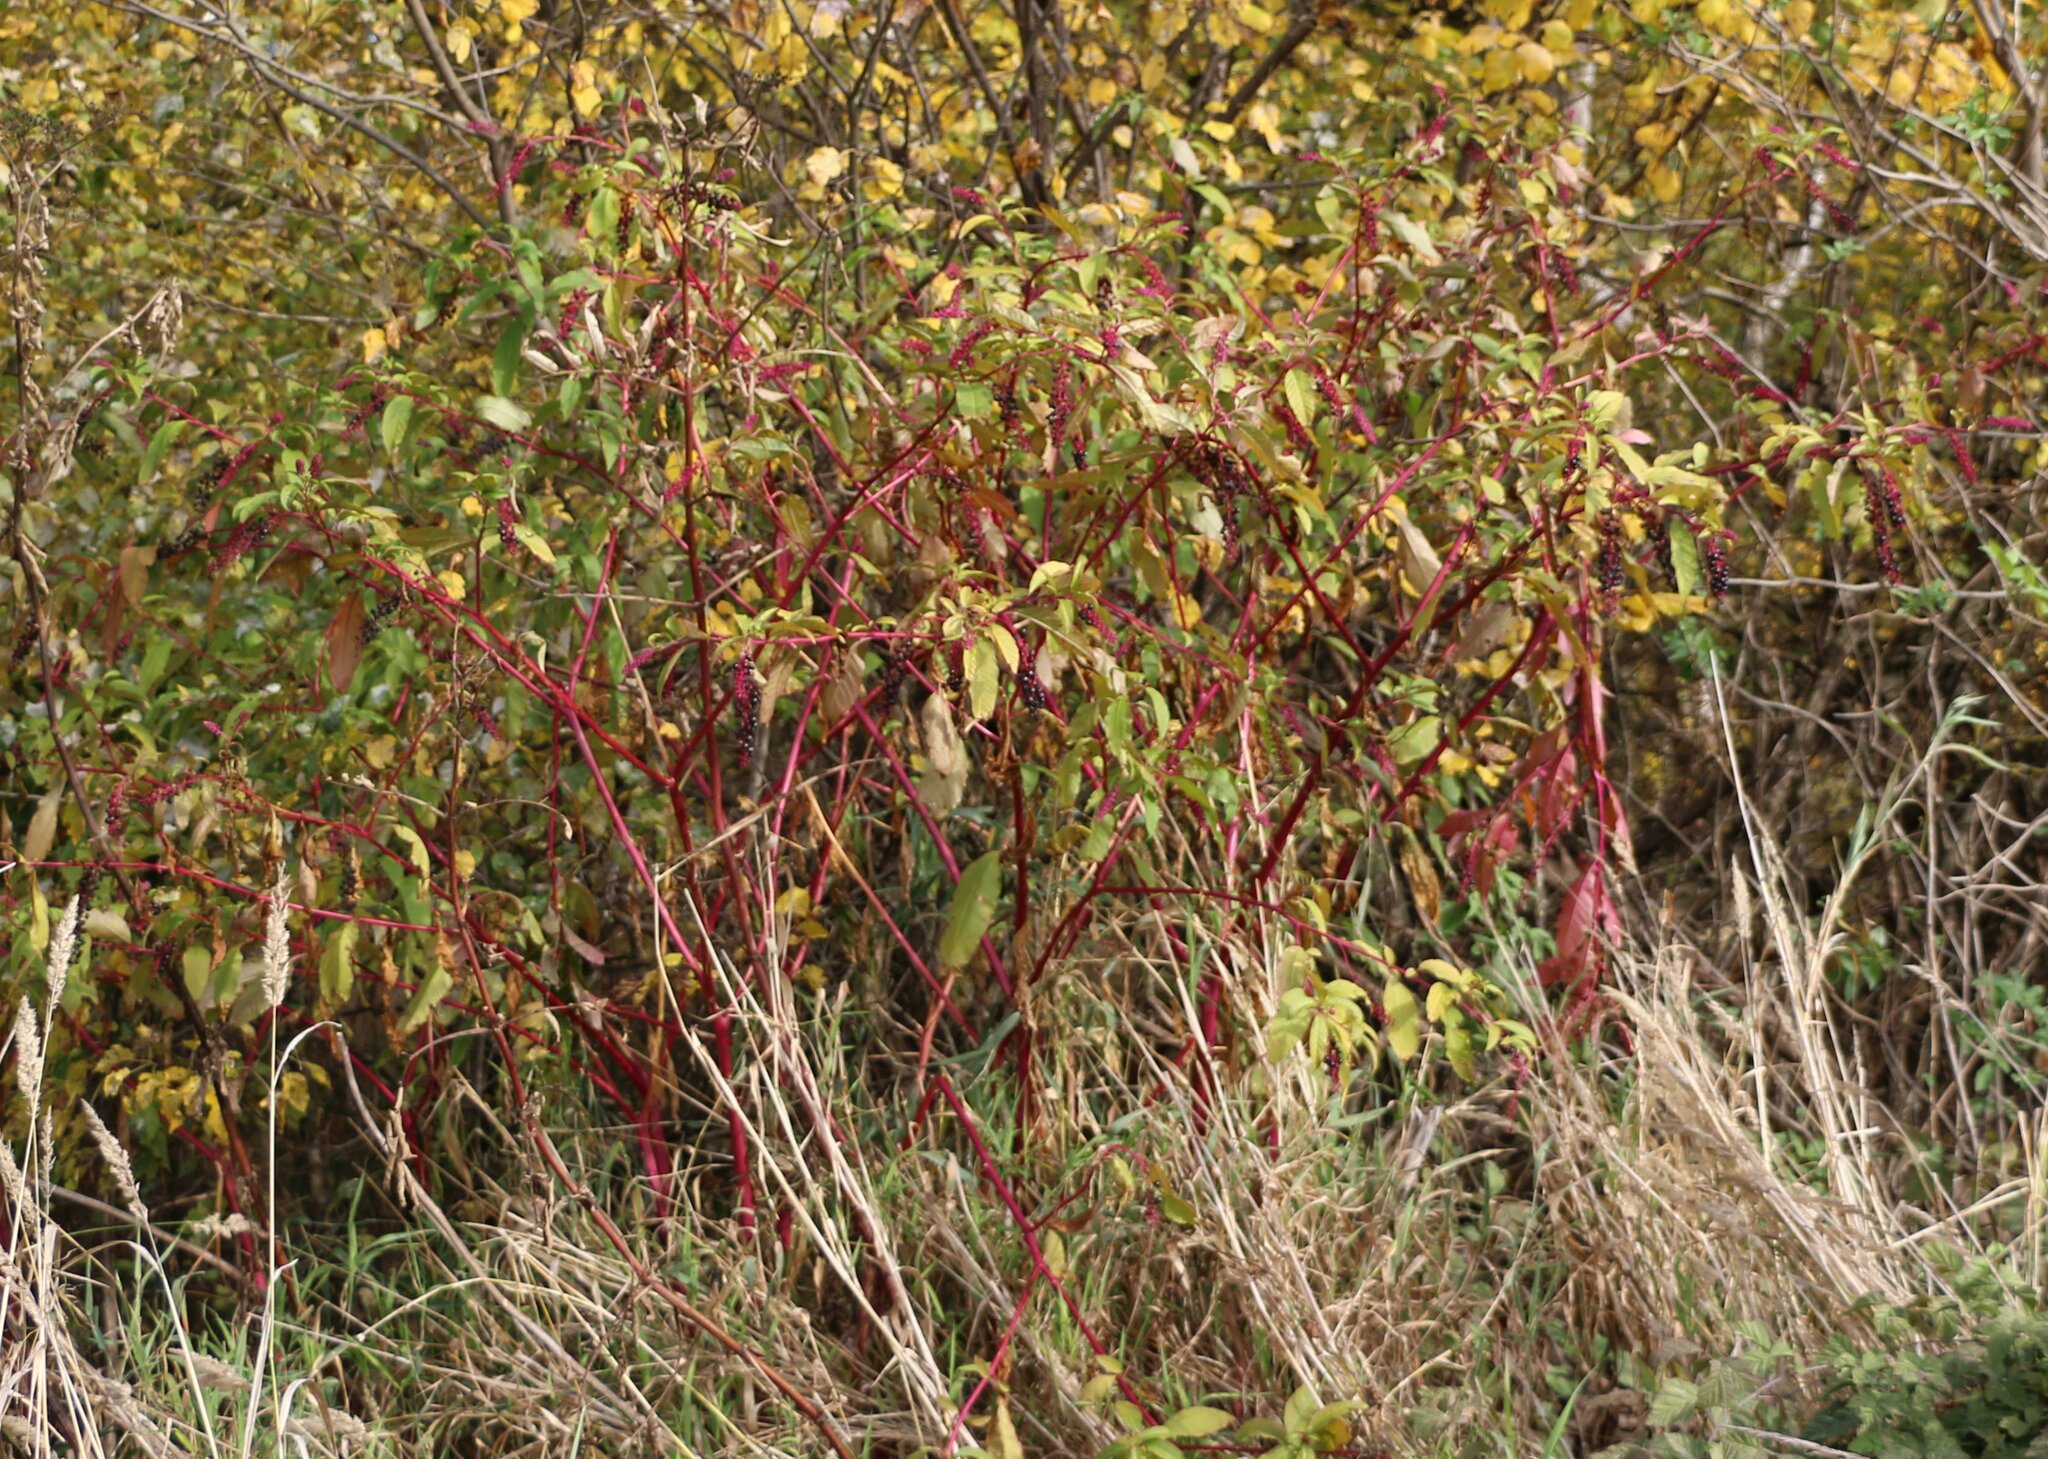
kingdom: Plantae
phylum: Tracheophyta
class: Magnoliopsida
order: Caryophyllales
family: Phytolaccaceae
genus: Phytolacca
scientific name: Phytolacca americana
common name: American pokeweed
